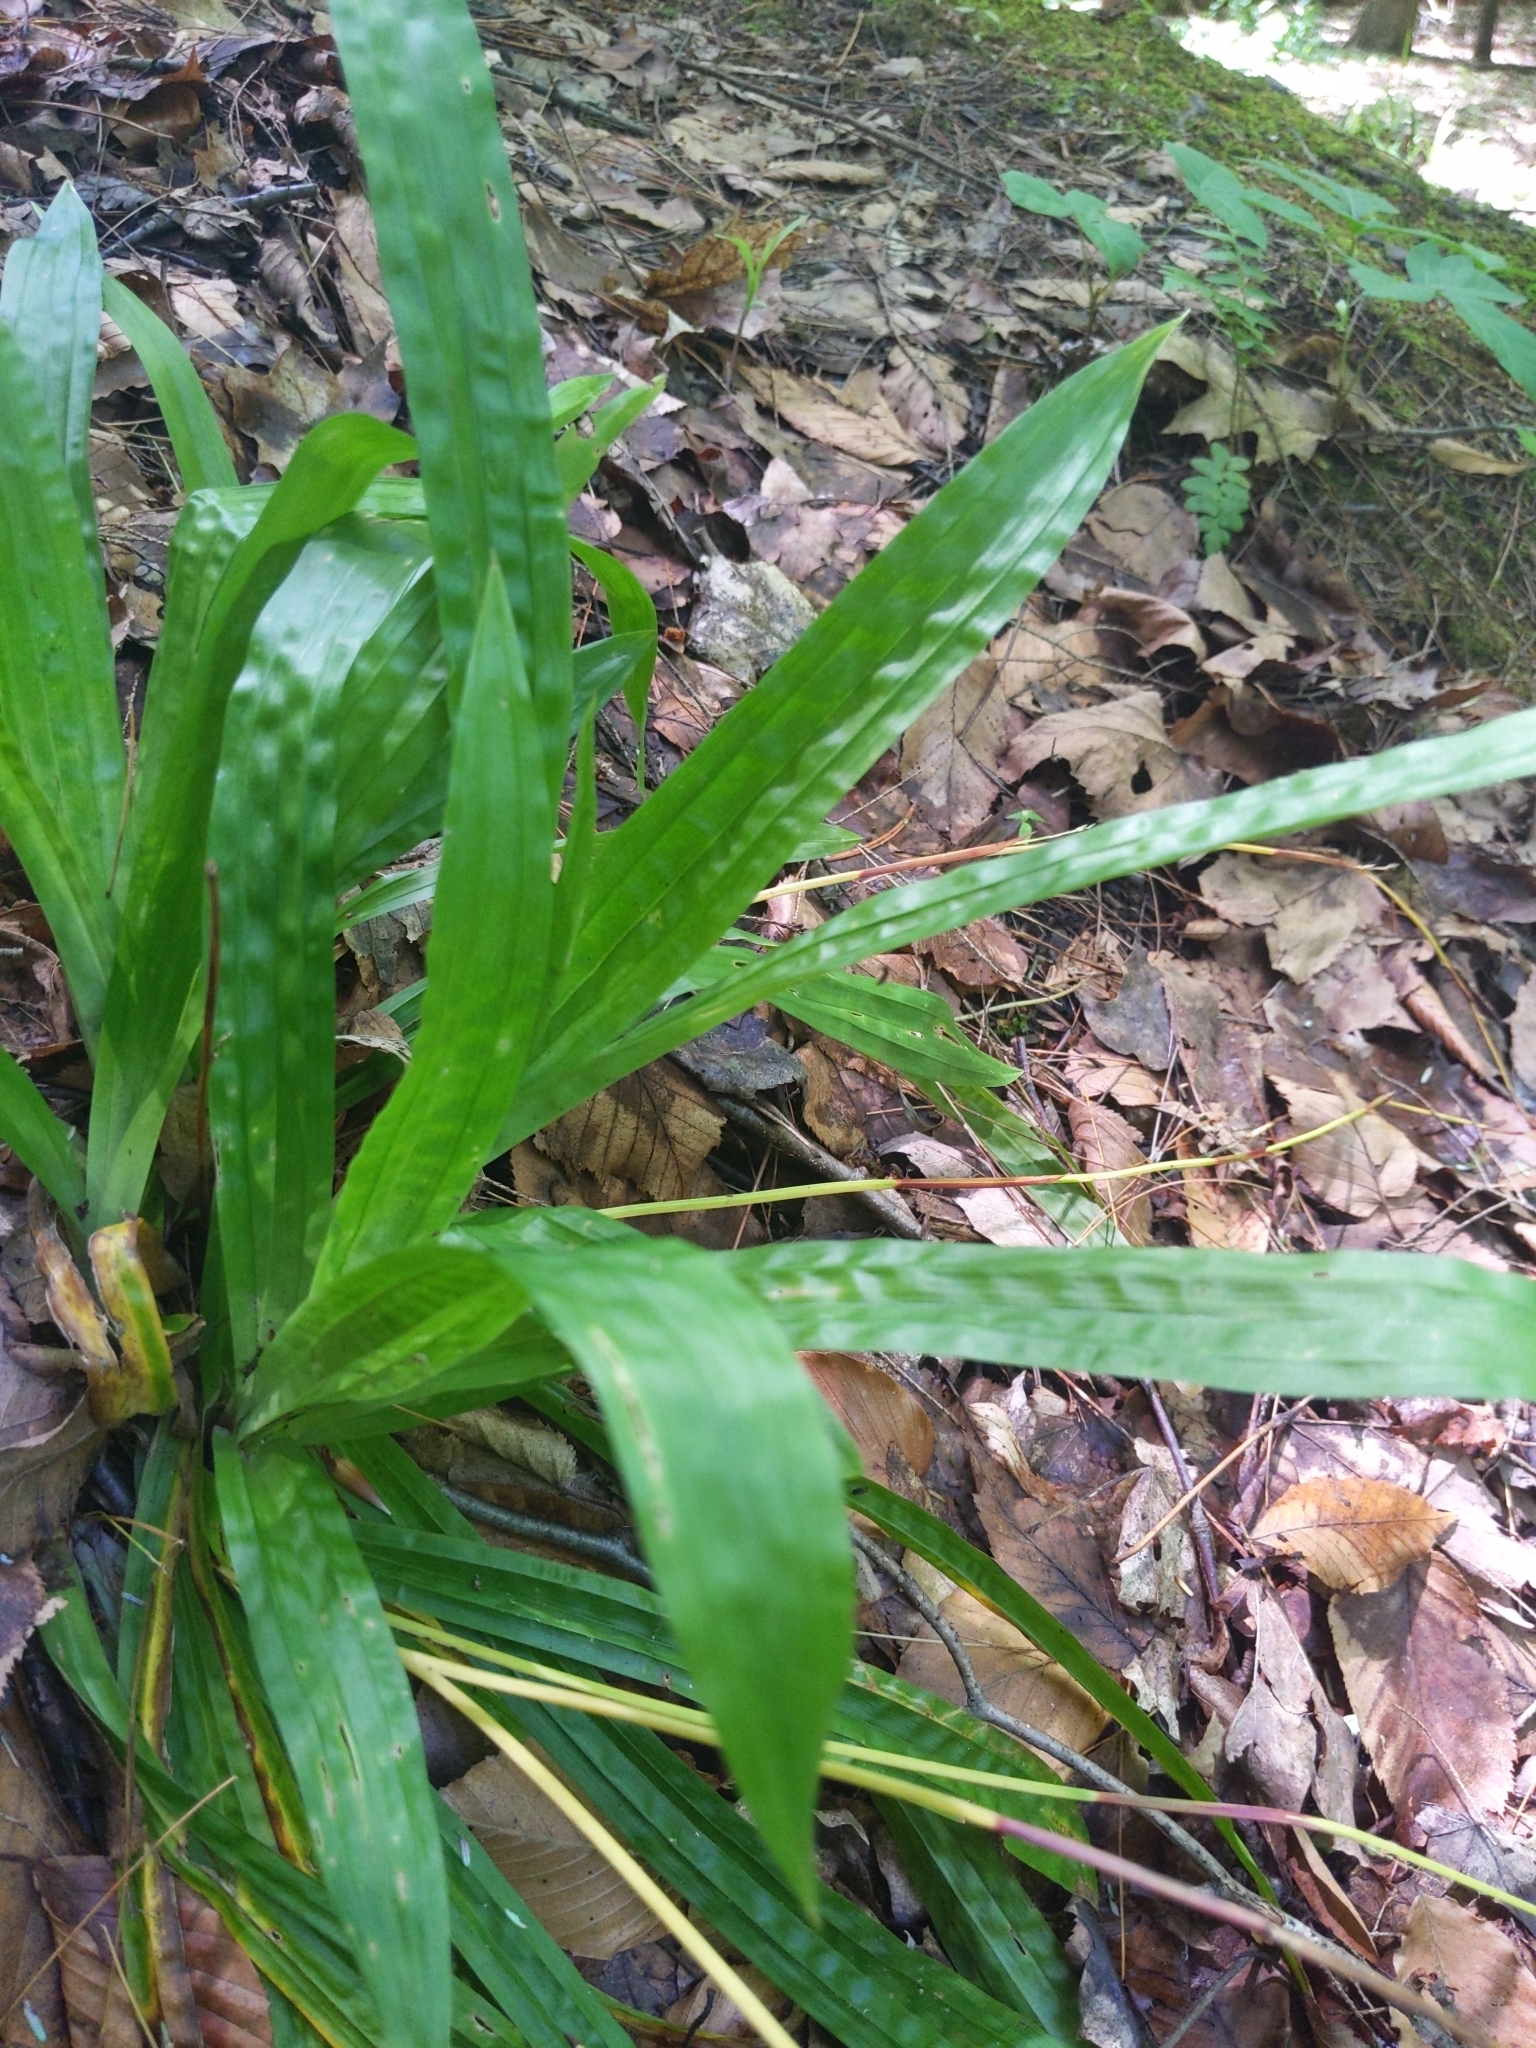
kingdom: Plantae
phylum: Tracheophyta
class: Liliopsida
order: Poales
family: Cyperaceae
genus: Carex
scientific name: Carex plantaginea
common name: Plantain-leaved sedge
